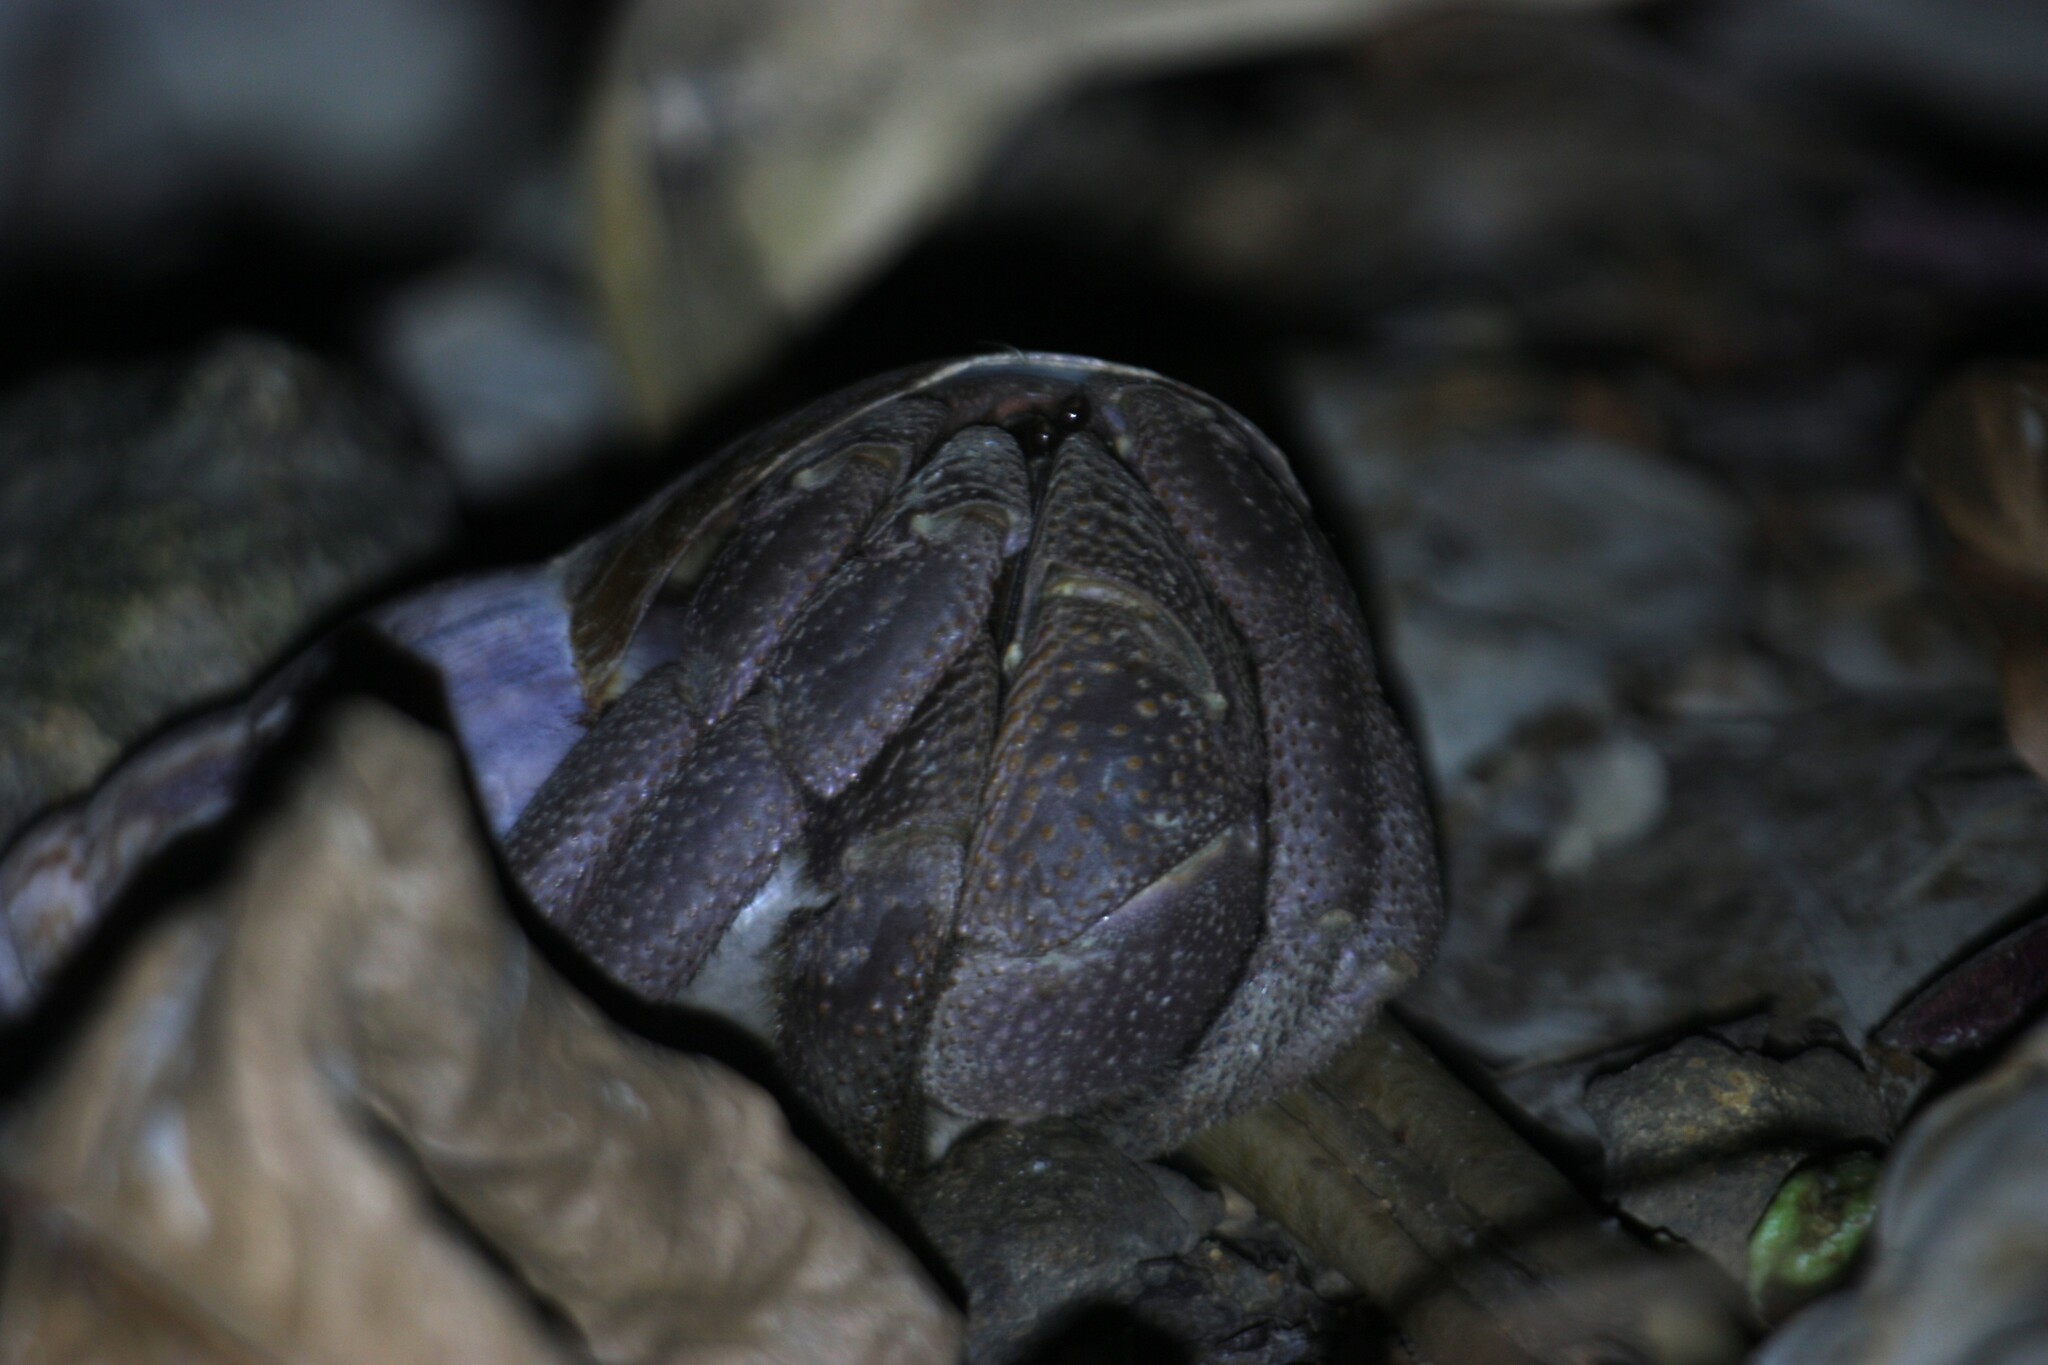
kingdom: Animalia
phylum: Arthropoda
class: Malacostraca
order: Decapoda
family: Coenobitidae
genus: Coenobita
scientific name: Coenobita brevimanus
